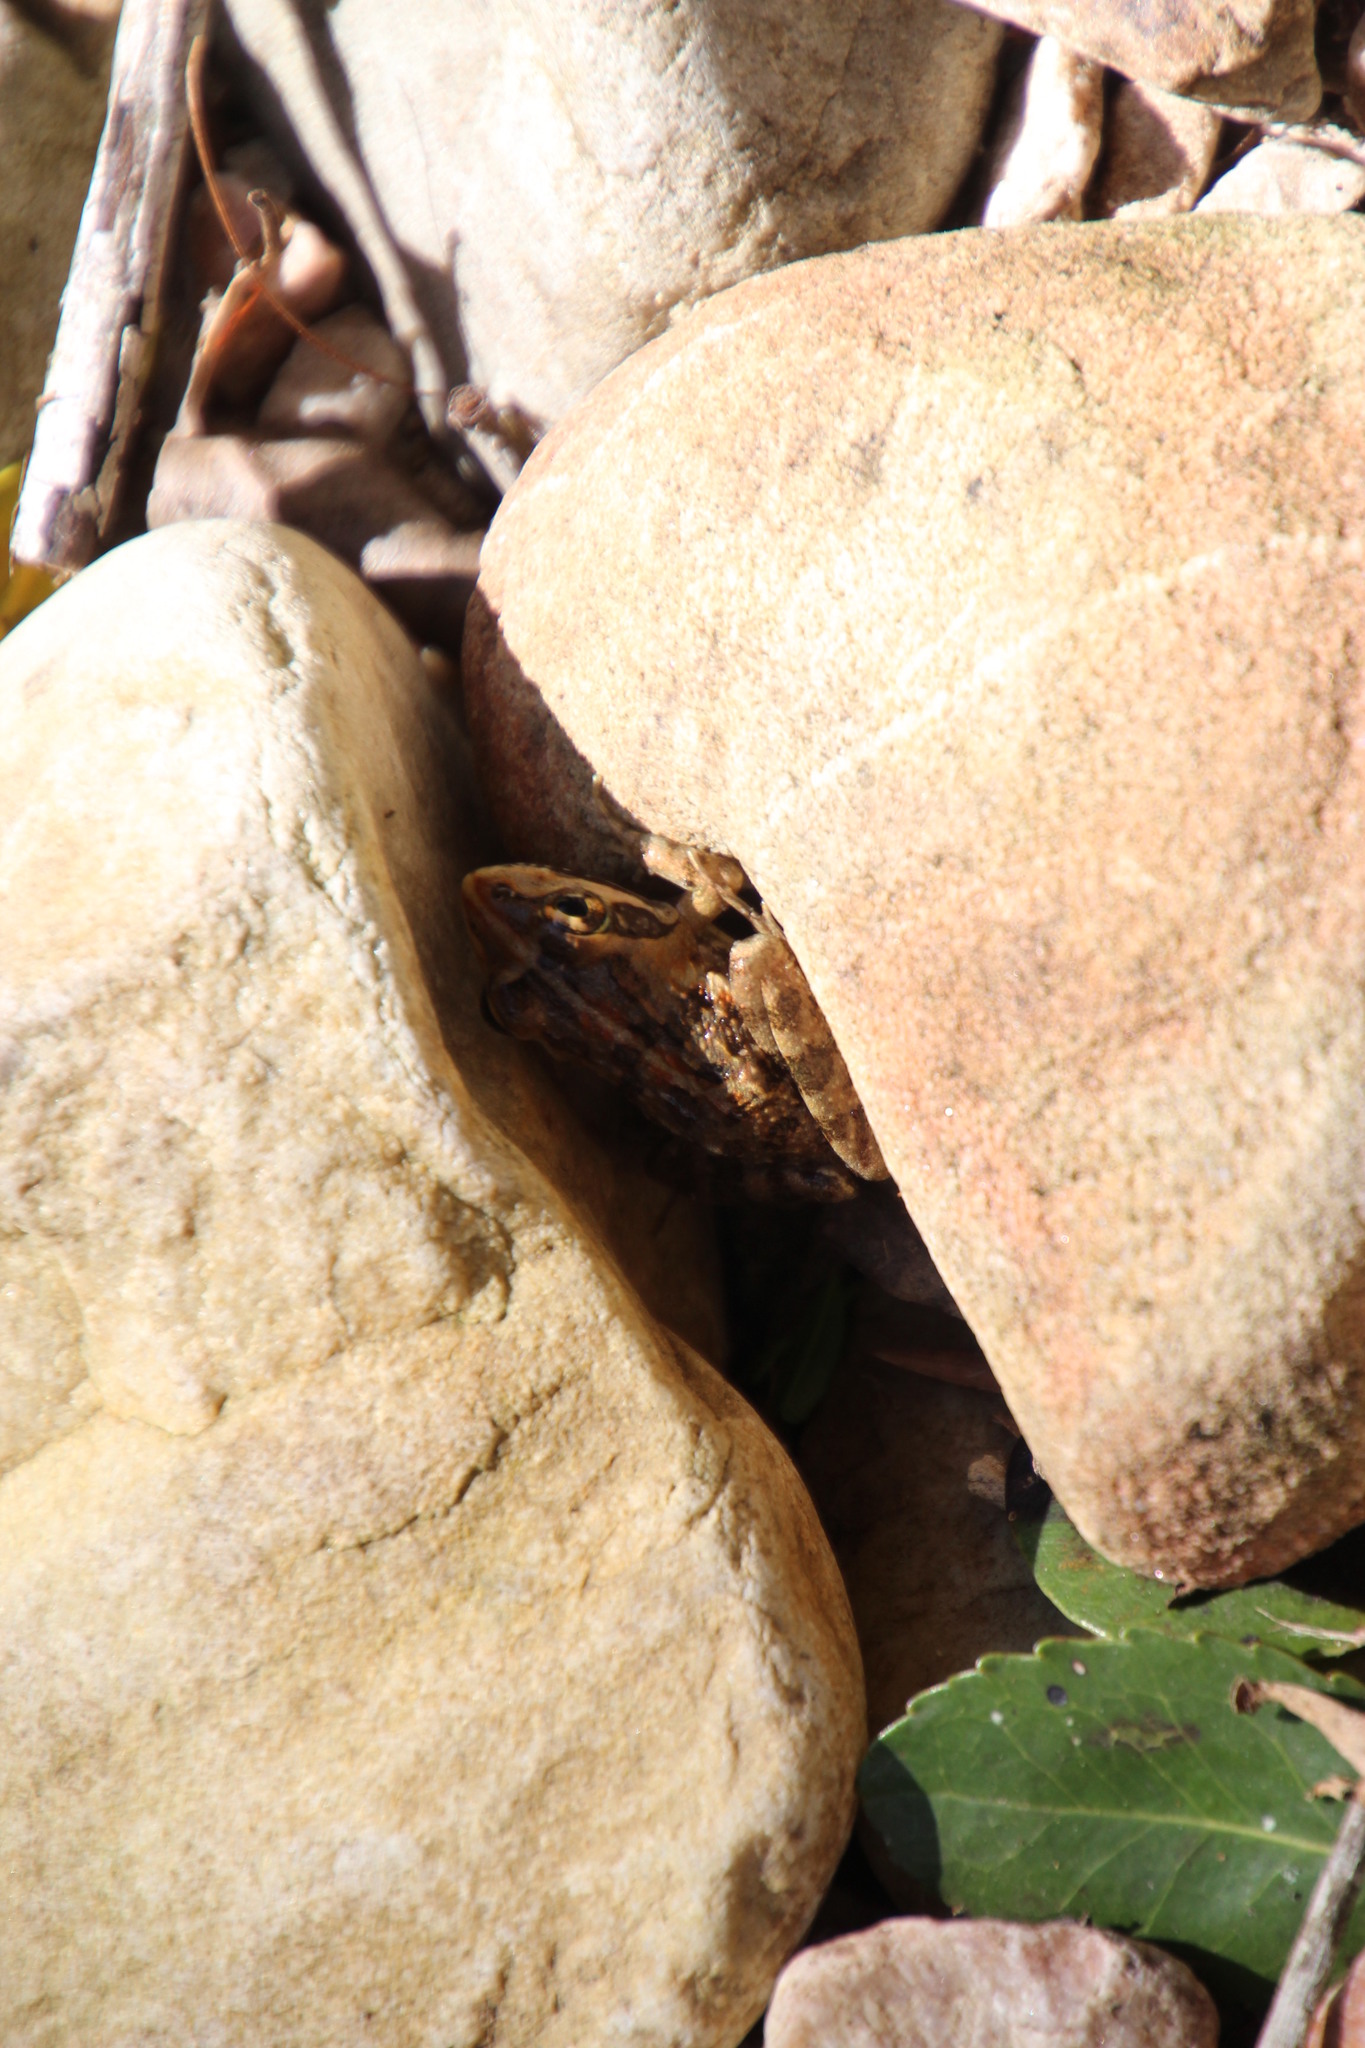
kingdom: Animalia
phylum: Chordata
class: Amphibia
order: Anura
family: Pyxicephalidae
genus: Amietia
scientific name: Amietia fuscigula
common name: Cape rana
